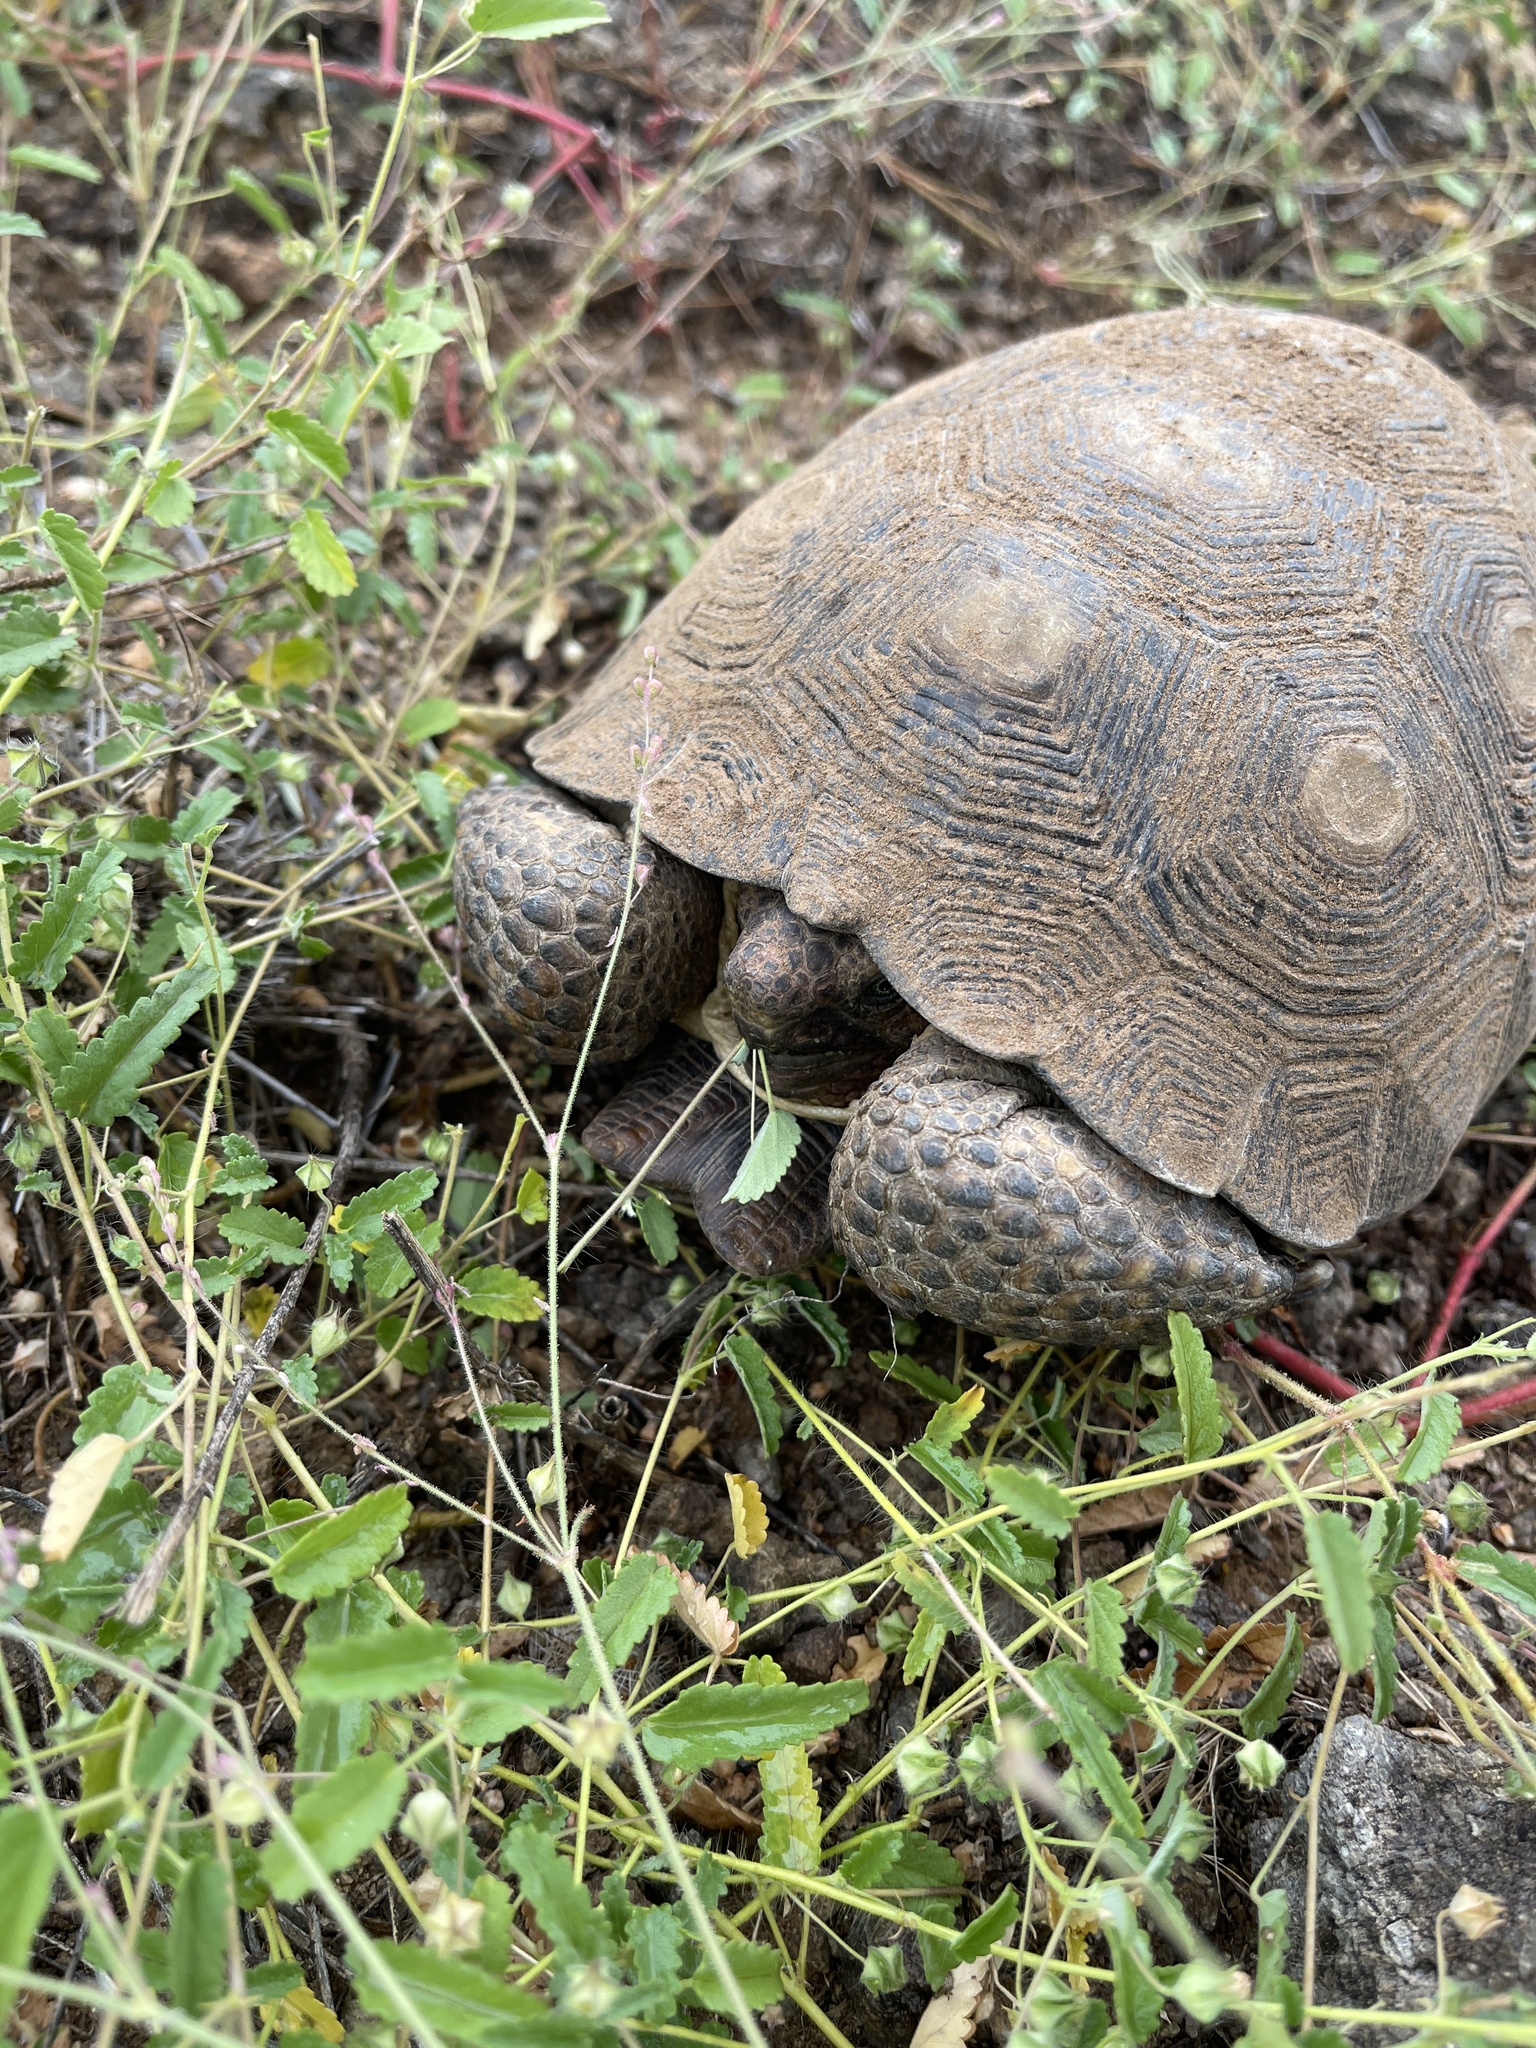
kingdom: Animalia
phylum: Chordata
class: Testudines
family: Testudinidae
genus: Gopherus
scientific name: Gopherus morafkai
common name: Sonoran desert tortoise
